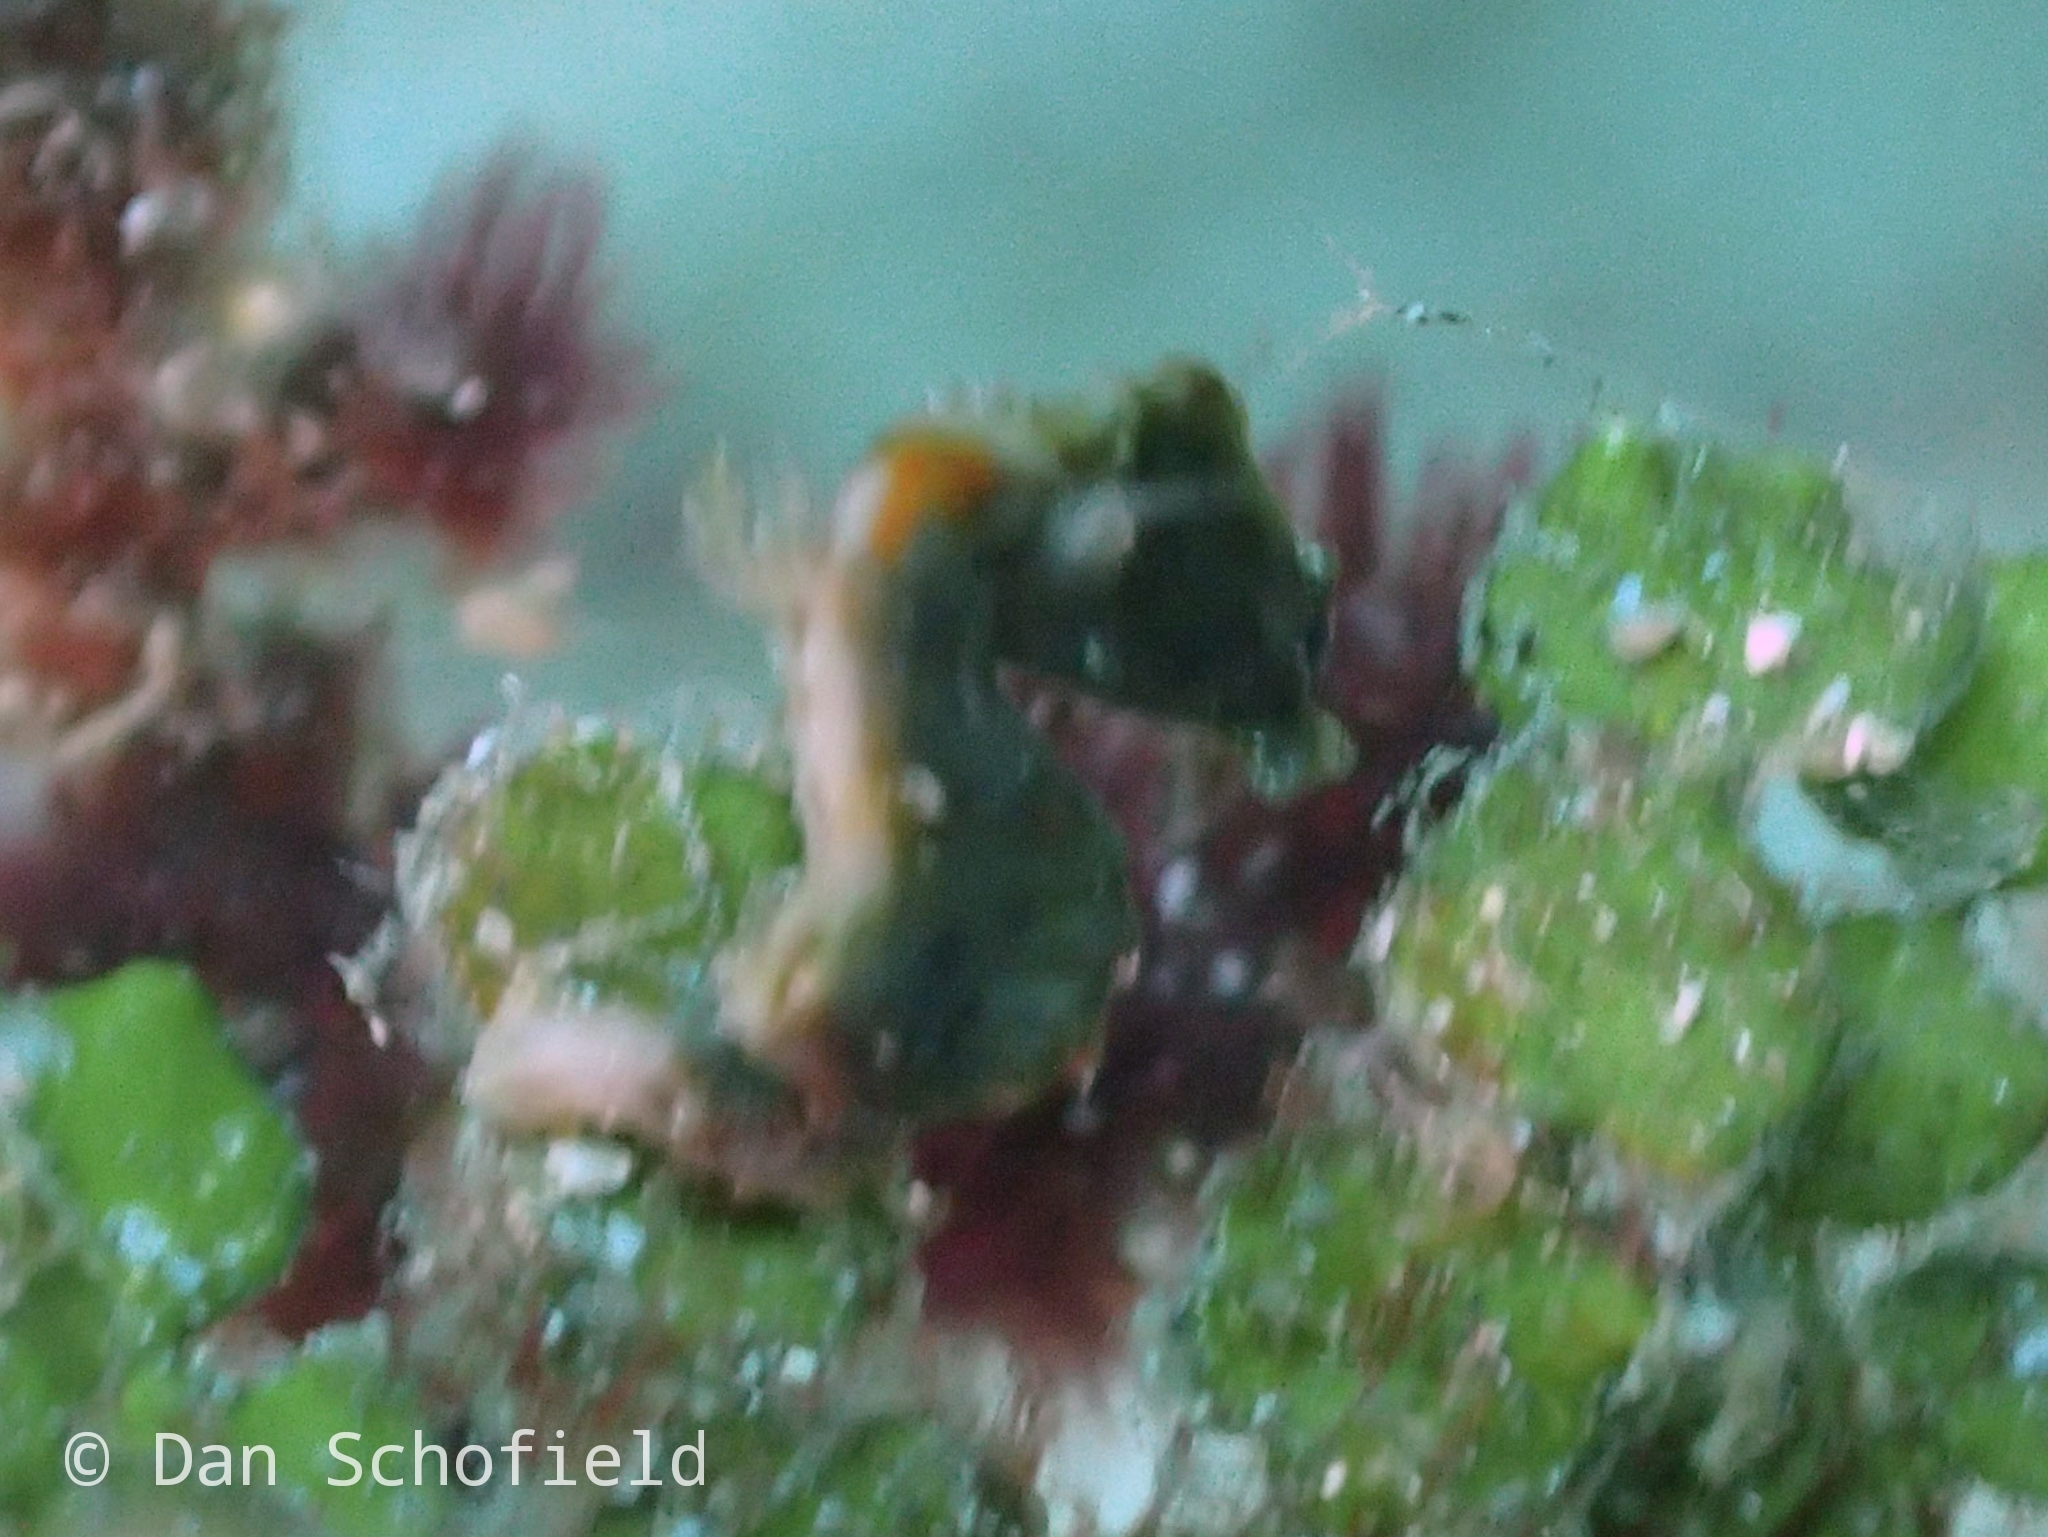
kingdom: Animalia
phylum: Chordata
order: Syngnathiformes
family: Syngnathidae
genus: Hippocampus
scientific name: Hippocampus pontohi
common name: Pontoh`s pygmy seahorse
